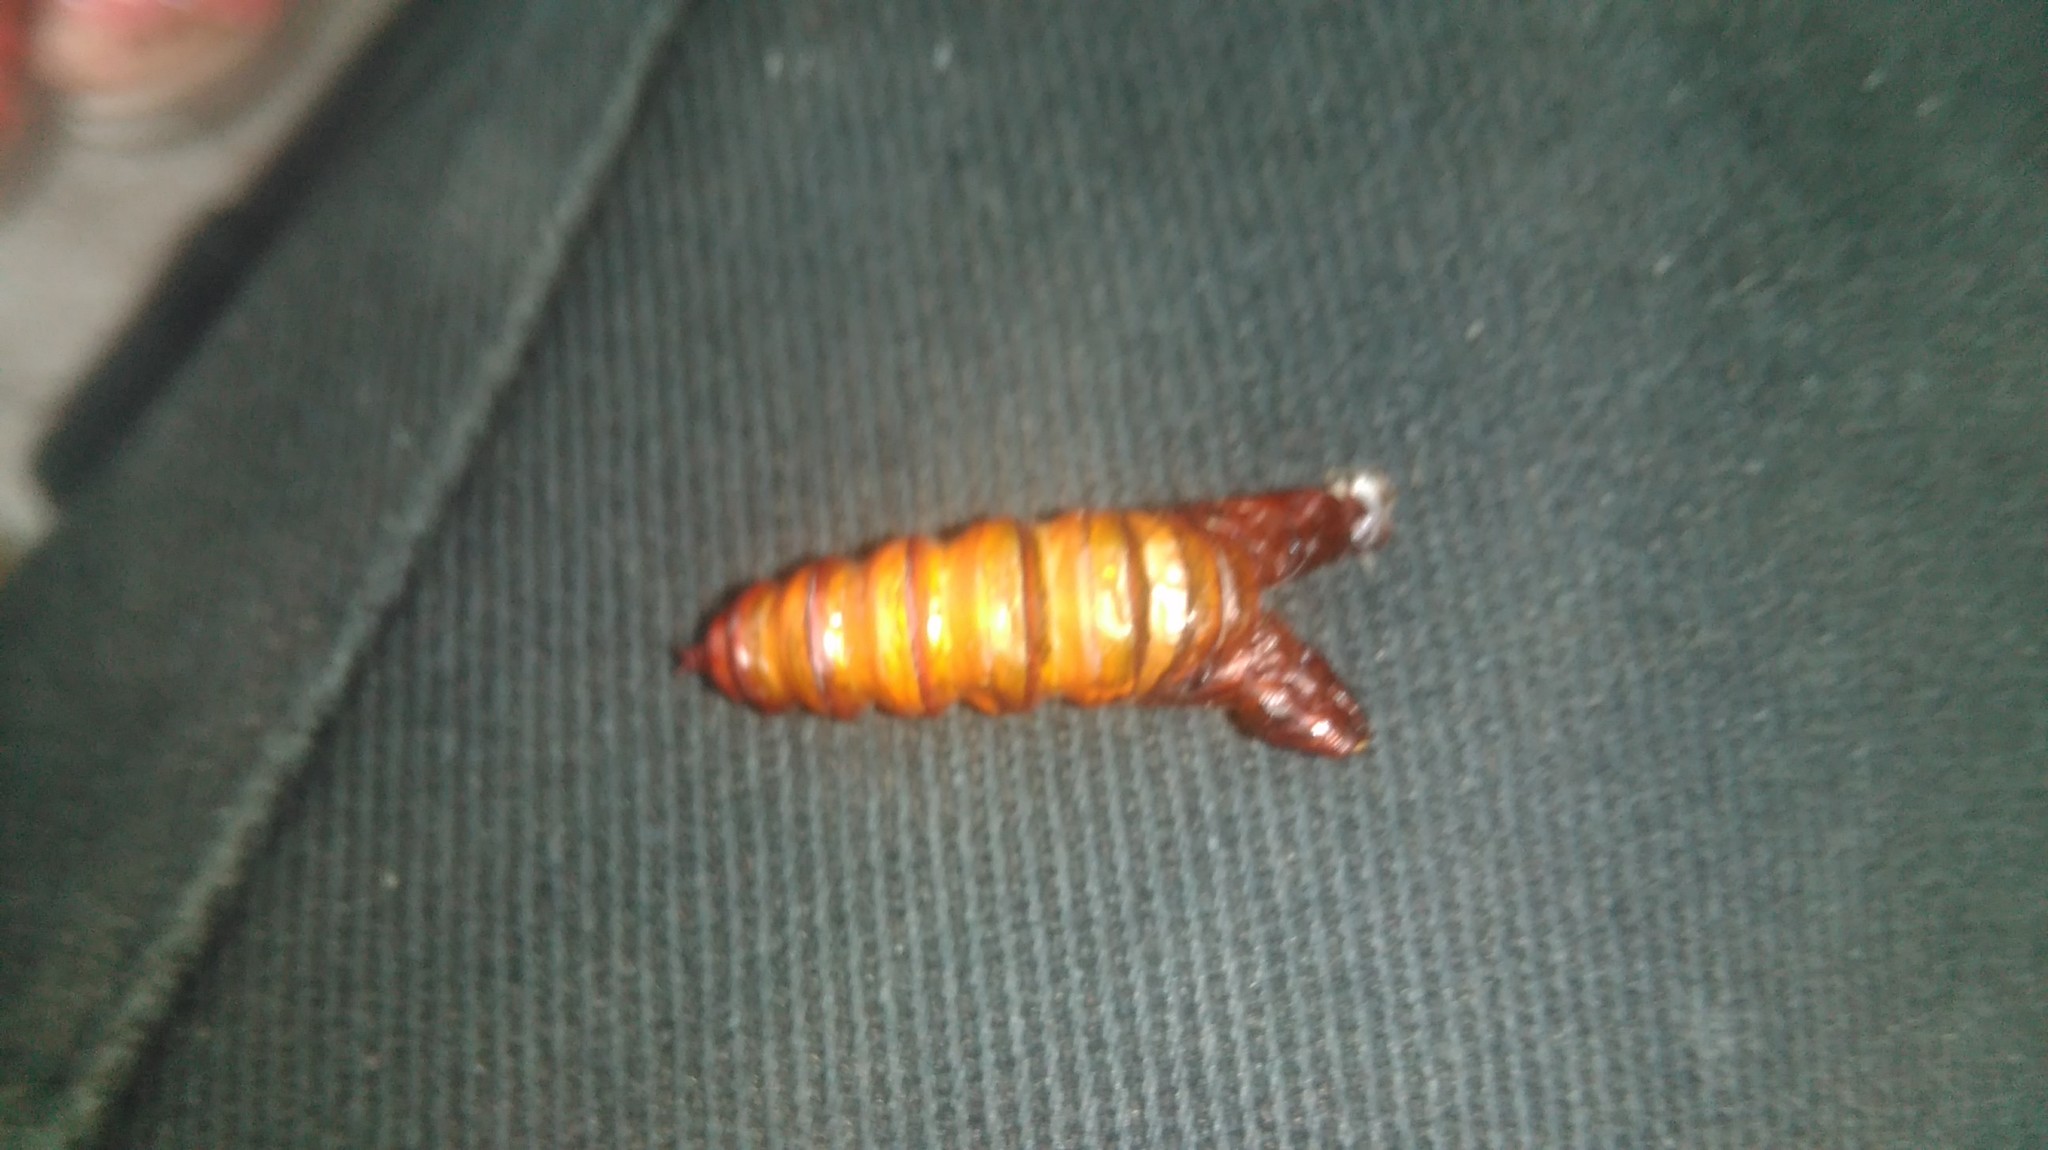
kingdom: Animalia
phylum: Arthropoda
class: Insecta
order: Lepidoptera
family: Castniidae
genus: Paysandisia
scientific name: Paysandisia archon
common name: Palm moth
